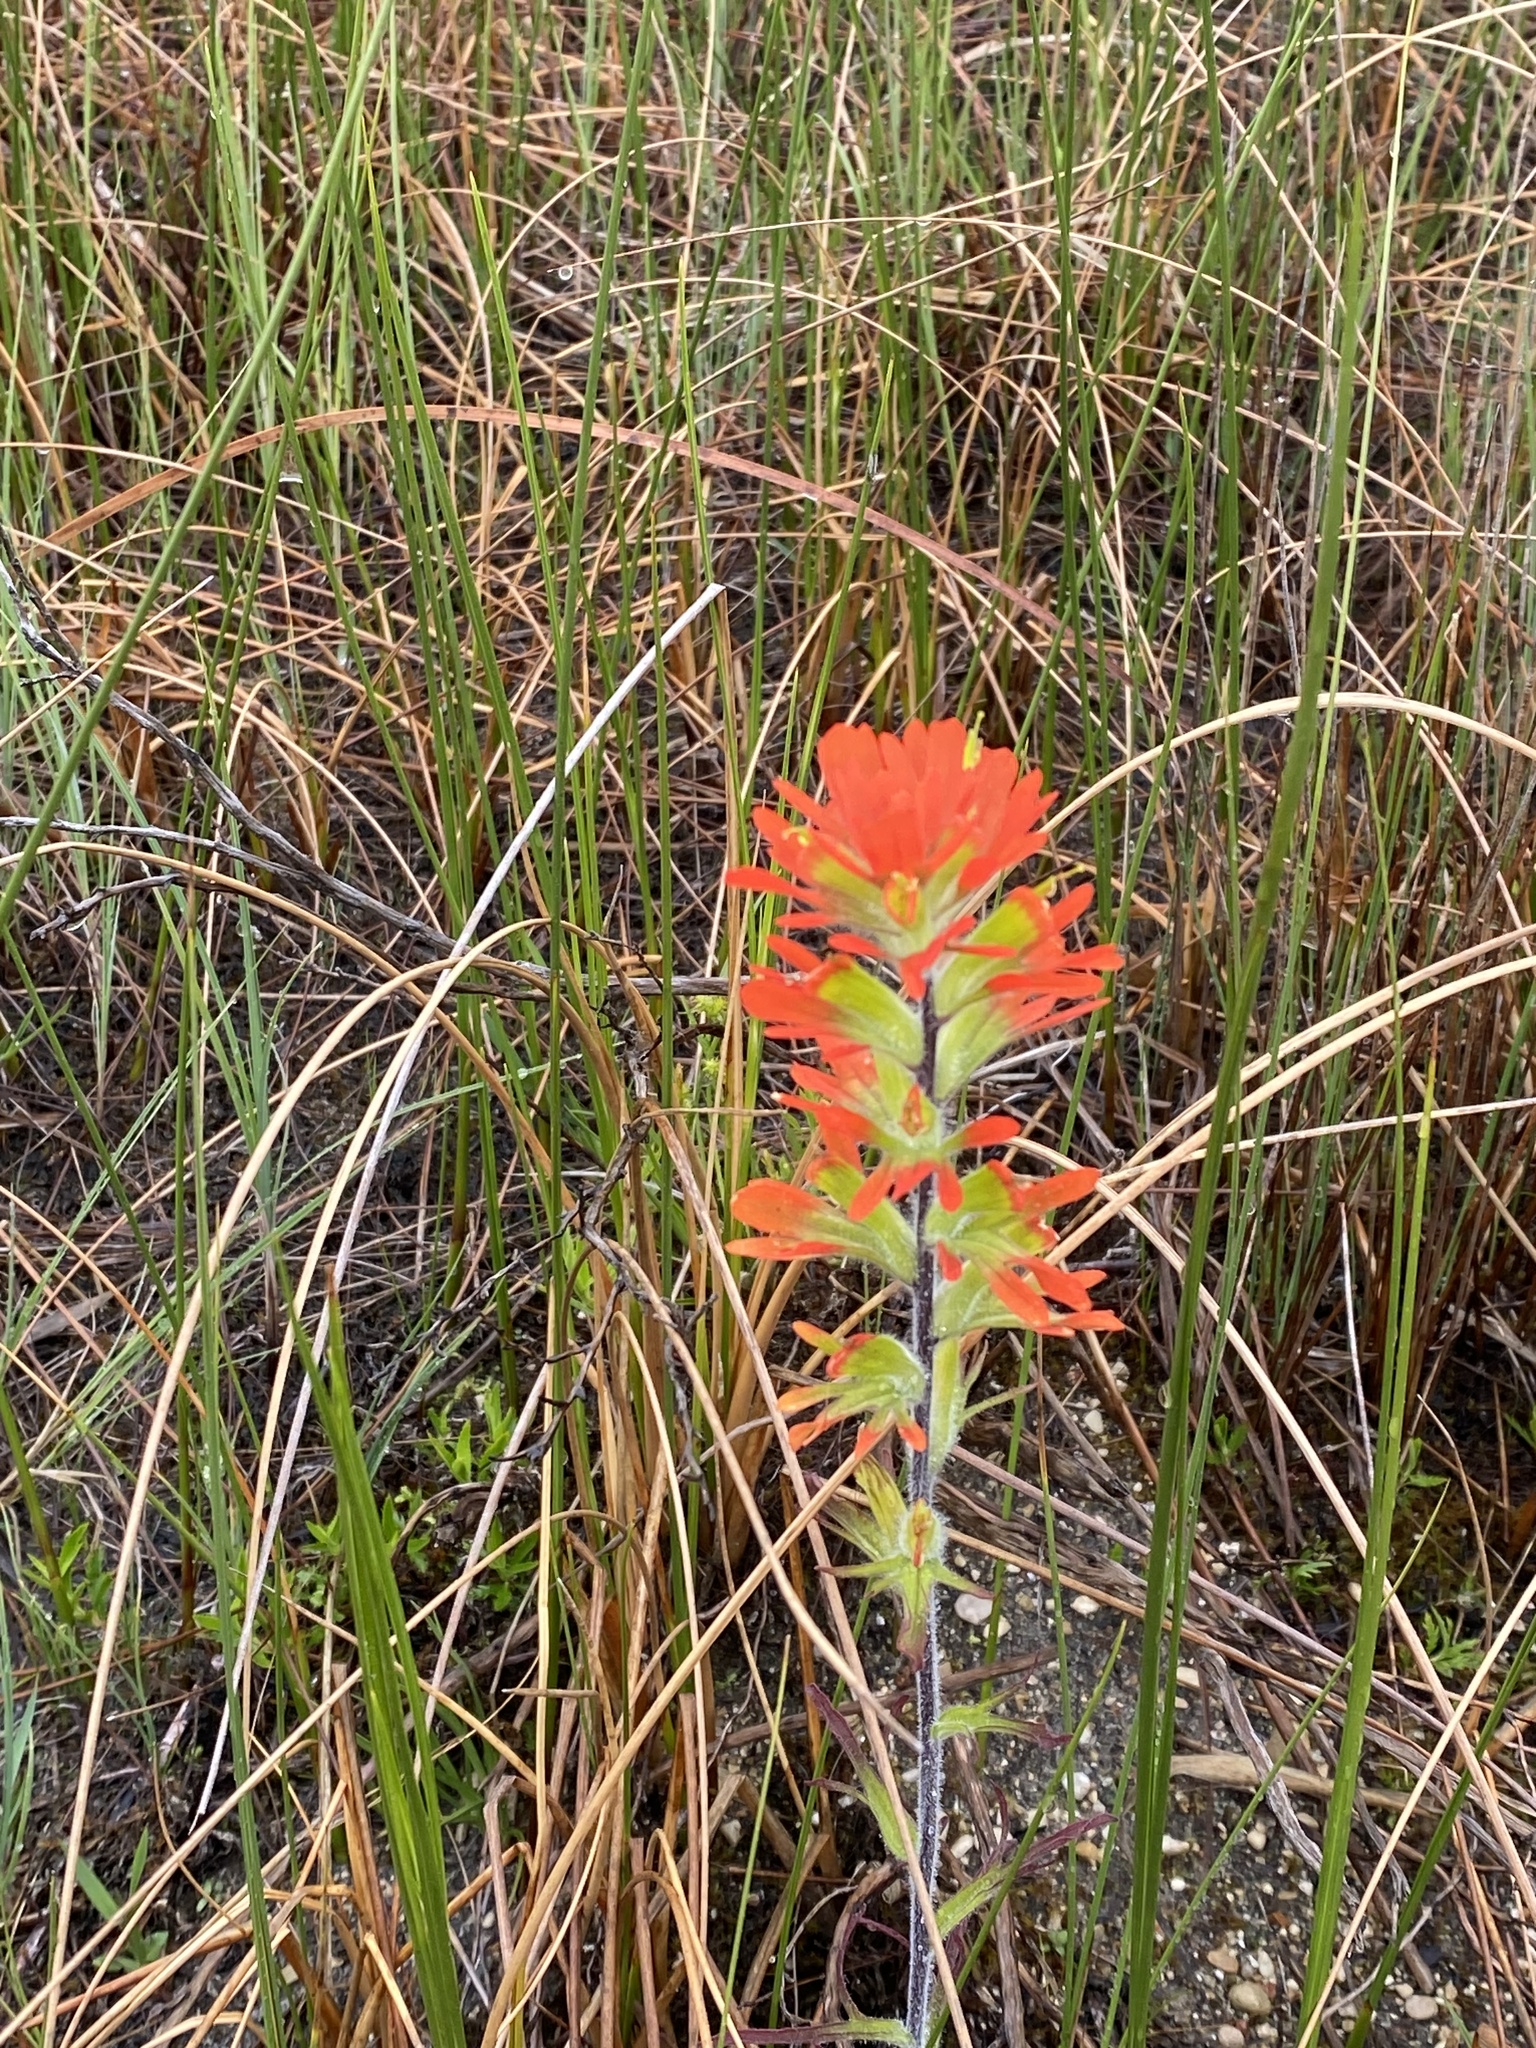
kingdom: Plantae
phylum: Tracheophyta
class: Magnoliopsida
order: Lamiales
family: Orobanchaceae
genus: Castilleja
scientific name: Castilleja coccinea
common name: Scarlet paintbrush
